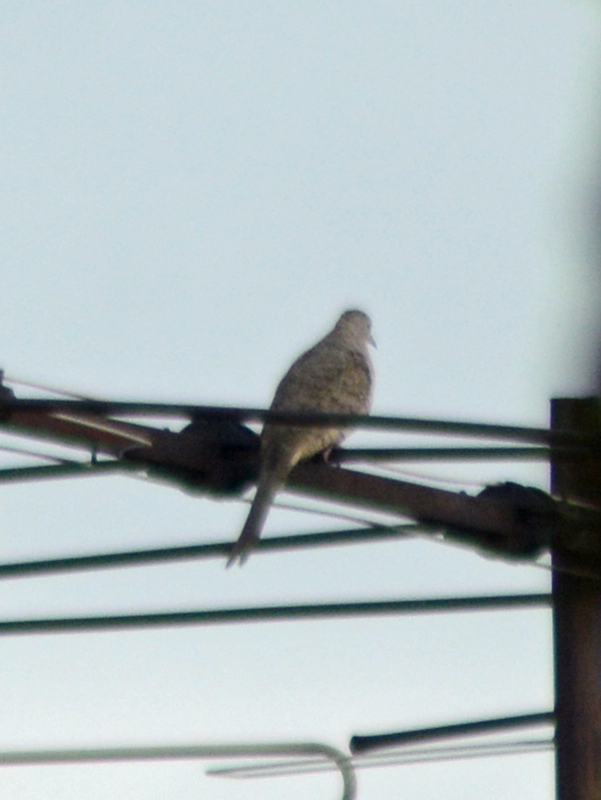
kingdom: Animalia
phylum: Chordata
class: Aves
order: Columbiformes
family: Columbidae
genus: Columbina
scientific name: Columbina inca
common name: Inca dove
